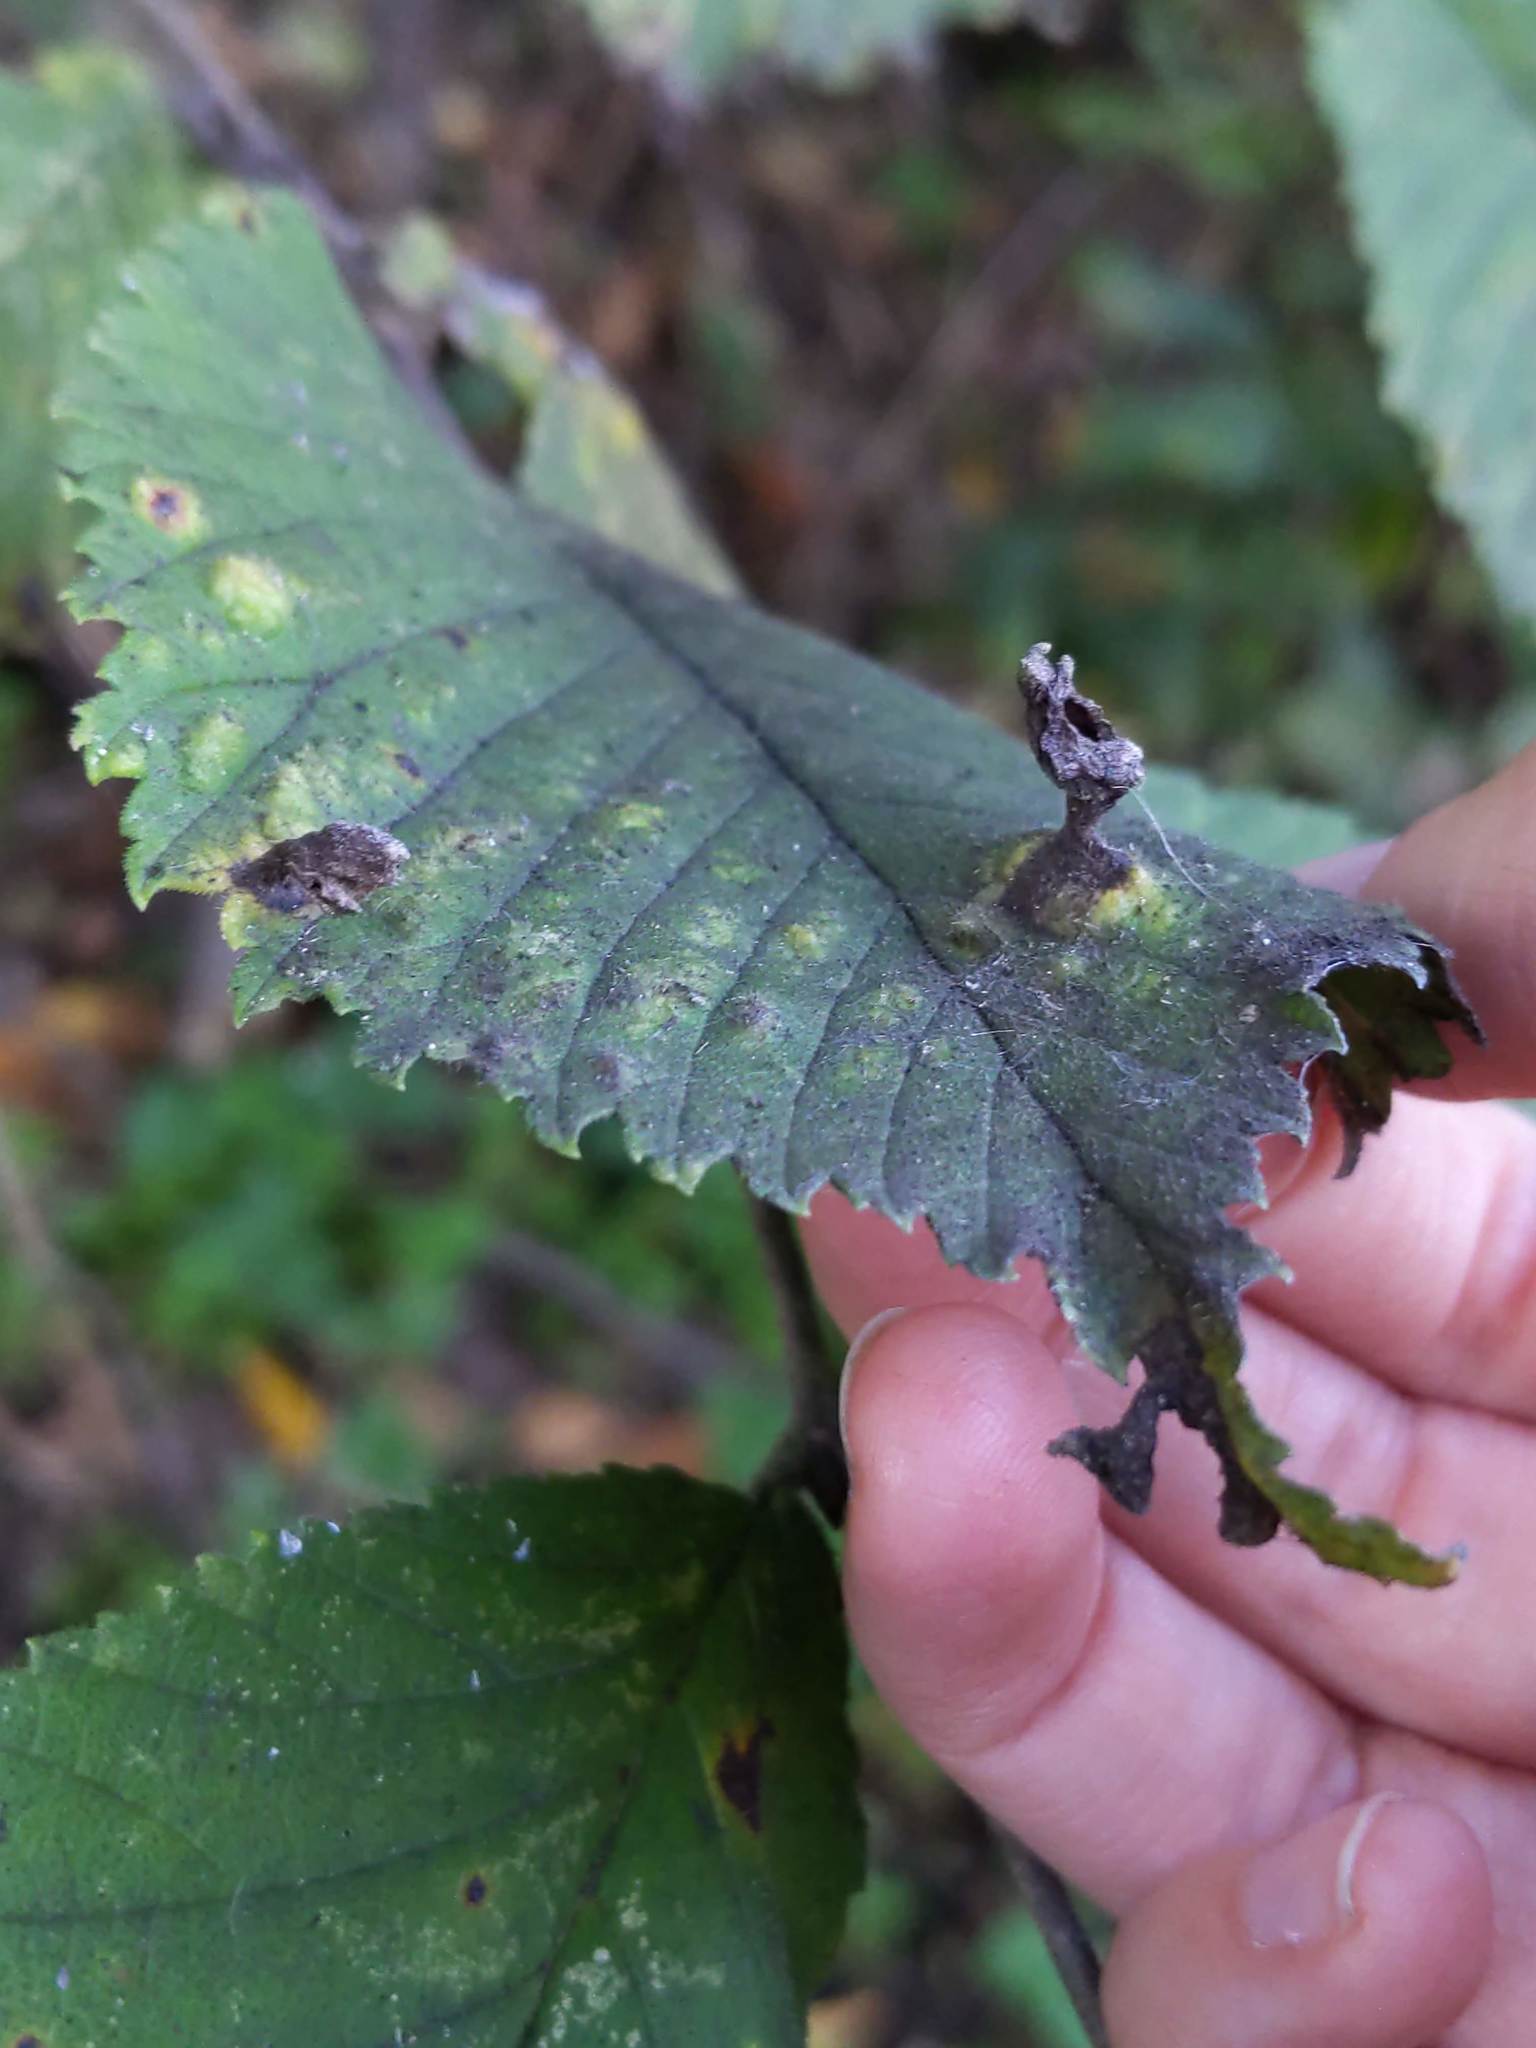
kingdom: Animalia
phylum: Arthropoda
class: Insecta
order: Hemiptera
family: Aphididae
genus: Tetraneura
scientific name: Tetraneura nigriabdominalis
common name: Aphid
